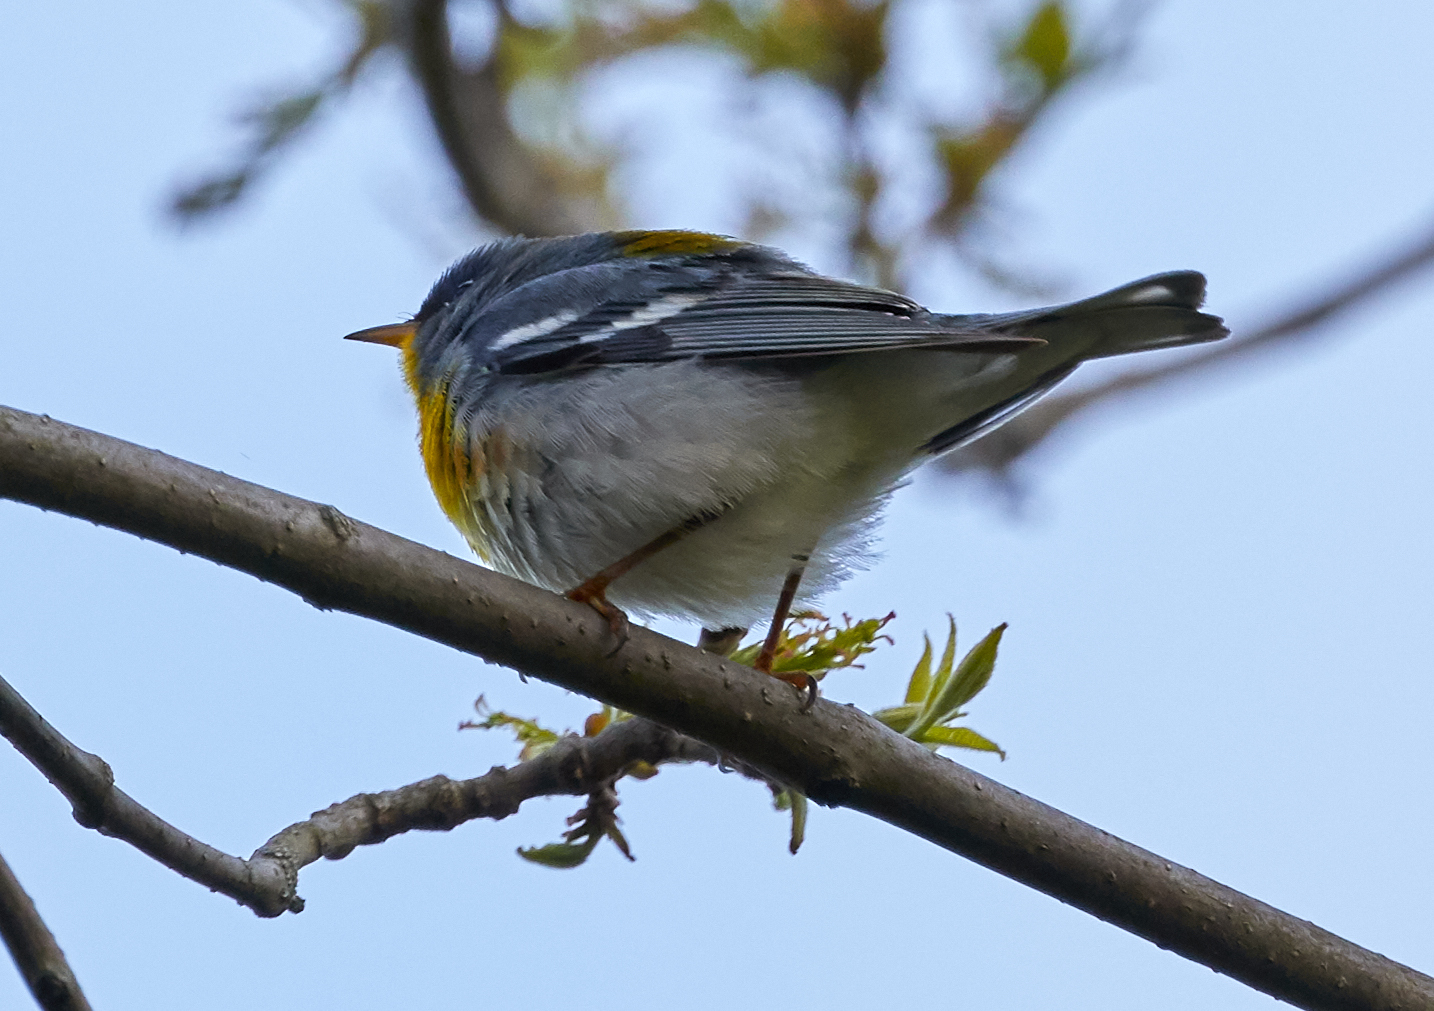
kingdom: Animalia
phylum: Chordata
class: Aves
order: Passeriformes
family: Parulidae
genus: Setophaga
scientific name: Setophaga americana
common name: Northern parula
